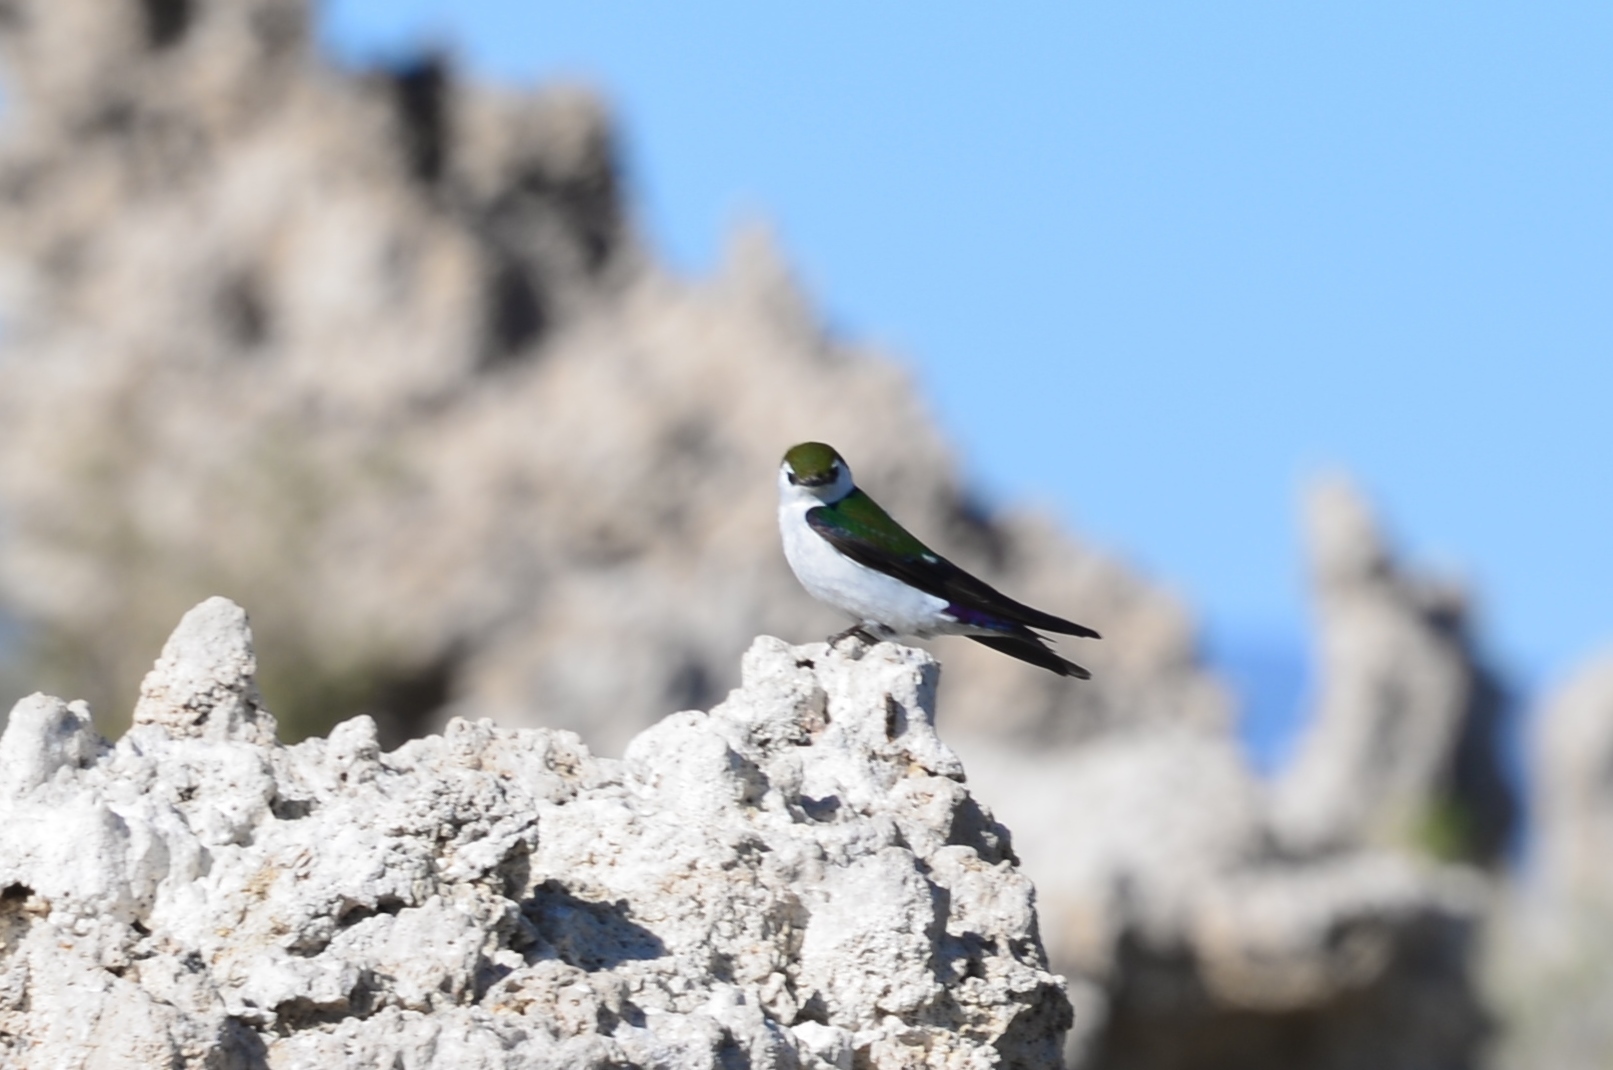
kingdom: Animalia
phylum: Chordata
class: Aves
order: Passeriformes
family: Hirundinidae
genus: Tachycineta
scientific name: Tachycineta thalassina
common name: Violet-green swallow
